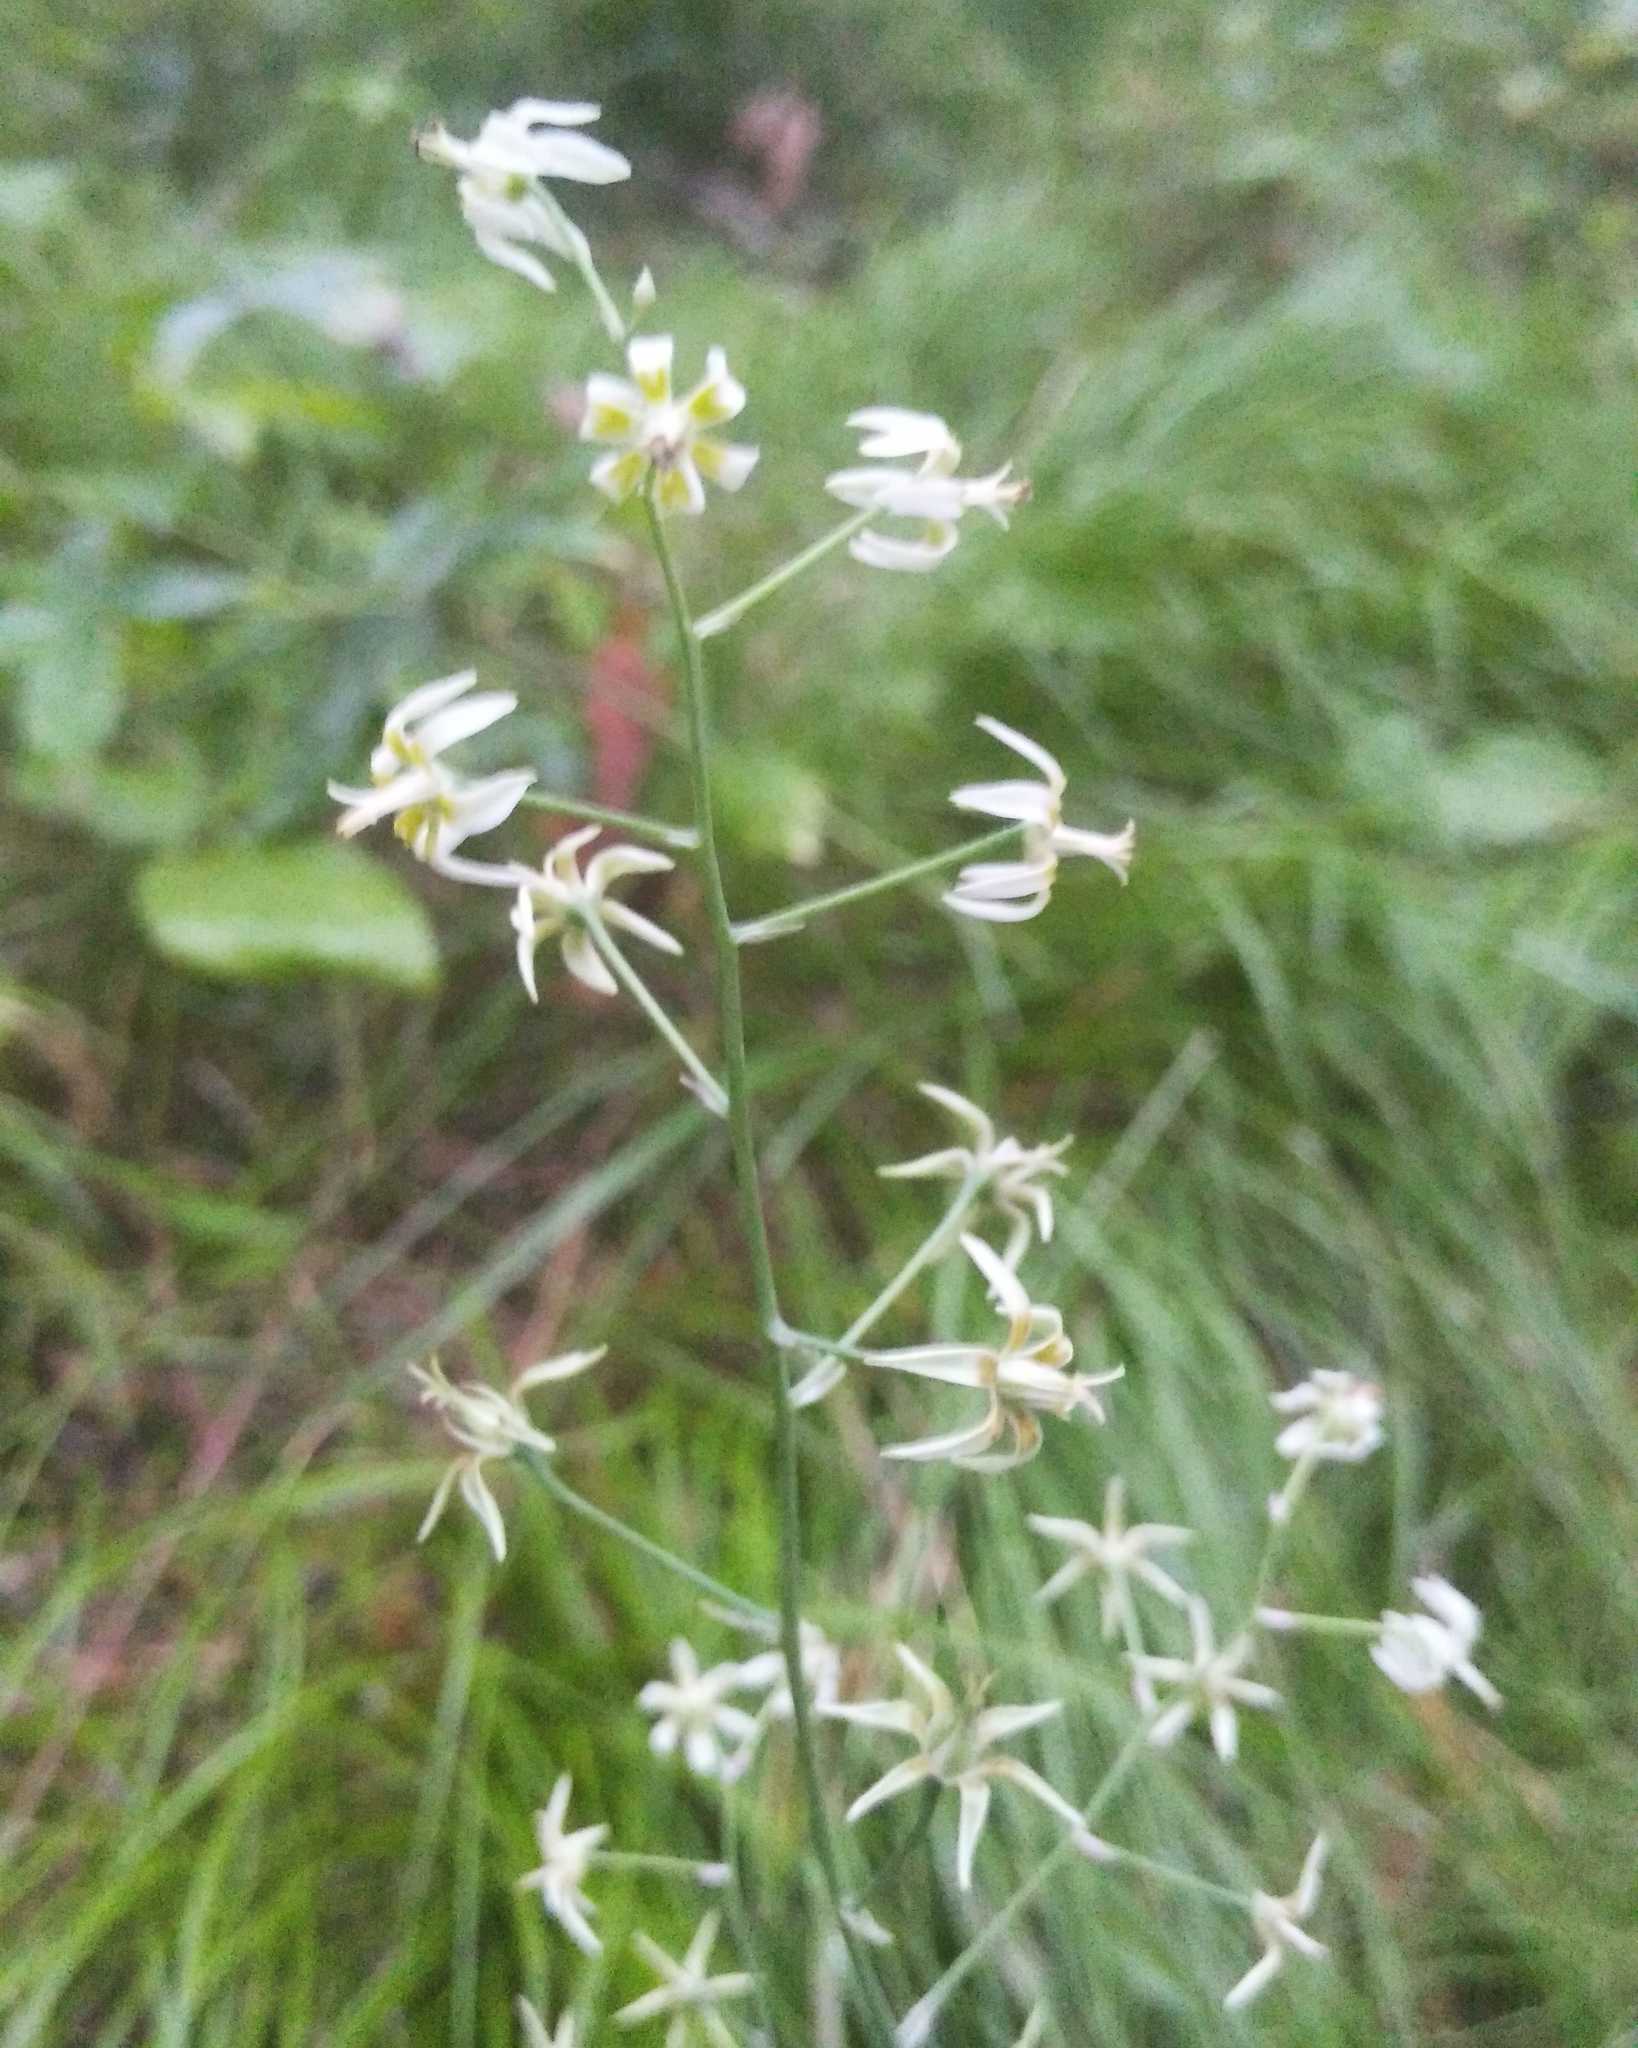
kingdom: Plantae
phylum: Tracheophyta
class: Liliopsida
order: Liliales
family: Melanthiaceae
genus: Anticlea
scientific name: Anticlea sibirica
